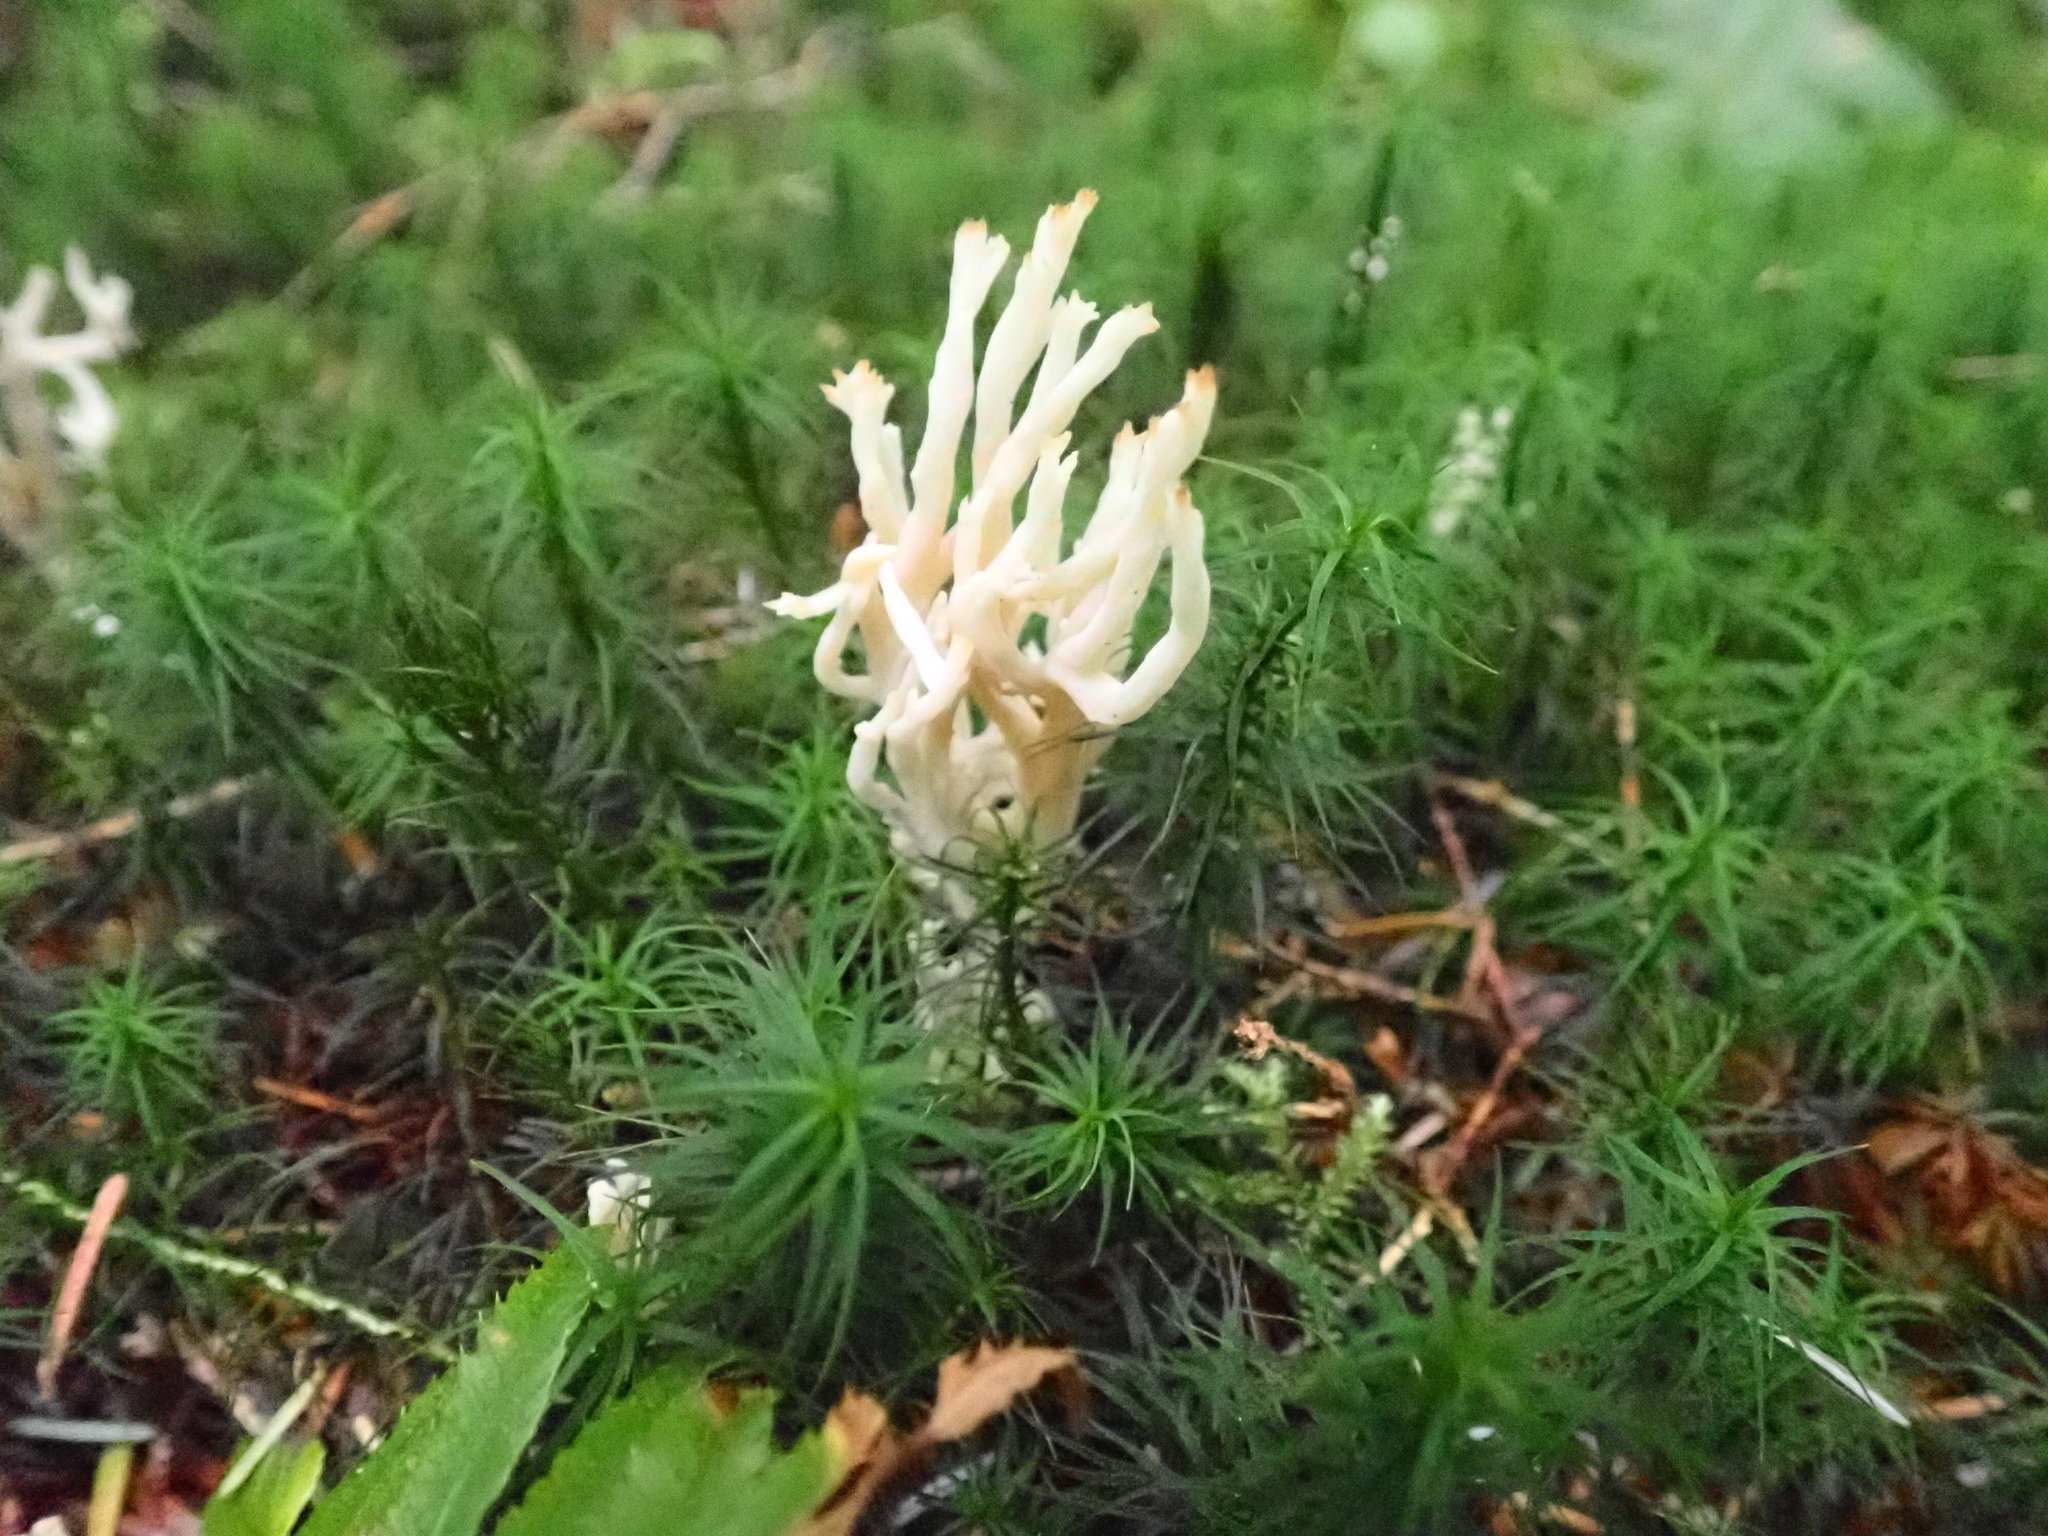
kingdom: Fungi
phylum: Basidiomycota
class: Agaricomycetes
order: Agaricales
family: Clavariaceae
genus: Clavaria
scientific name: Clavaria fragilis
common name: White spindles
